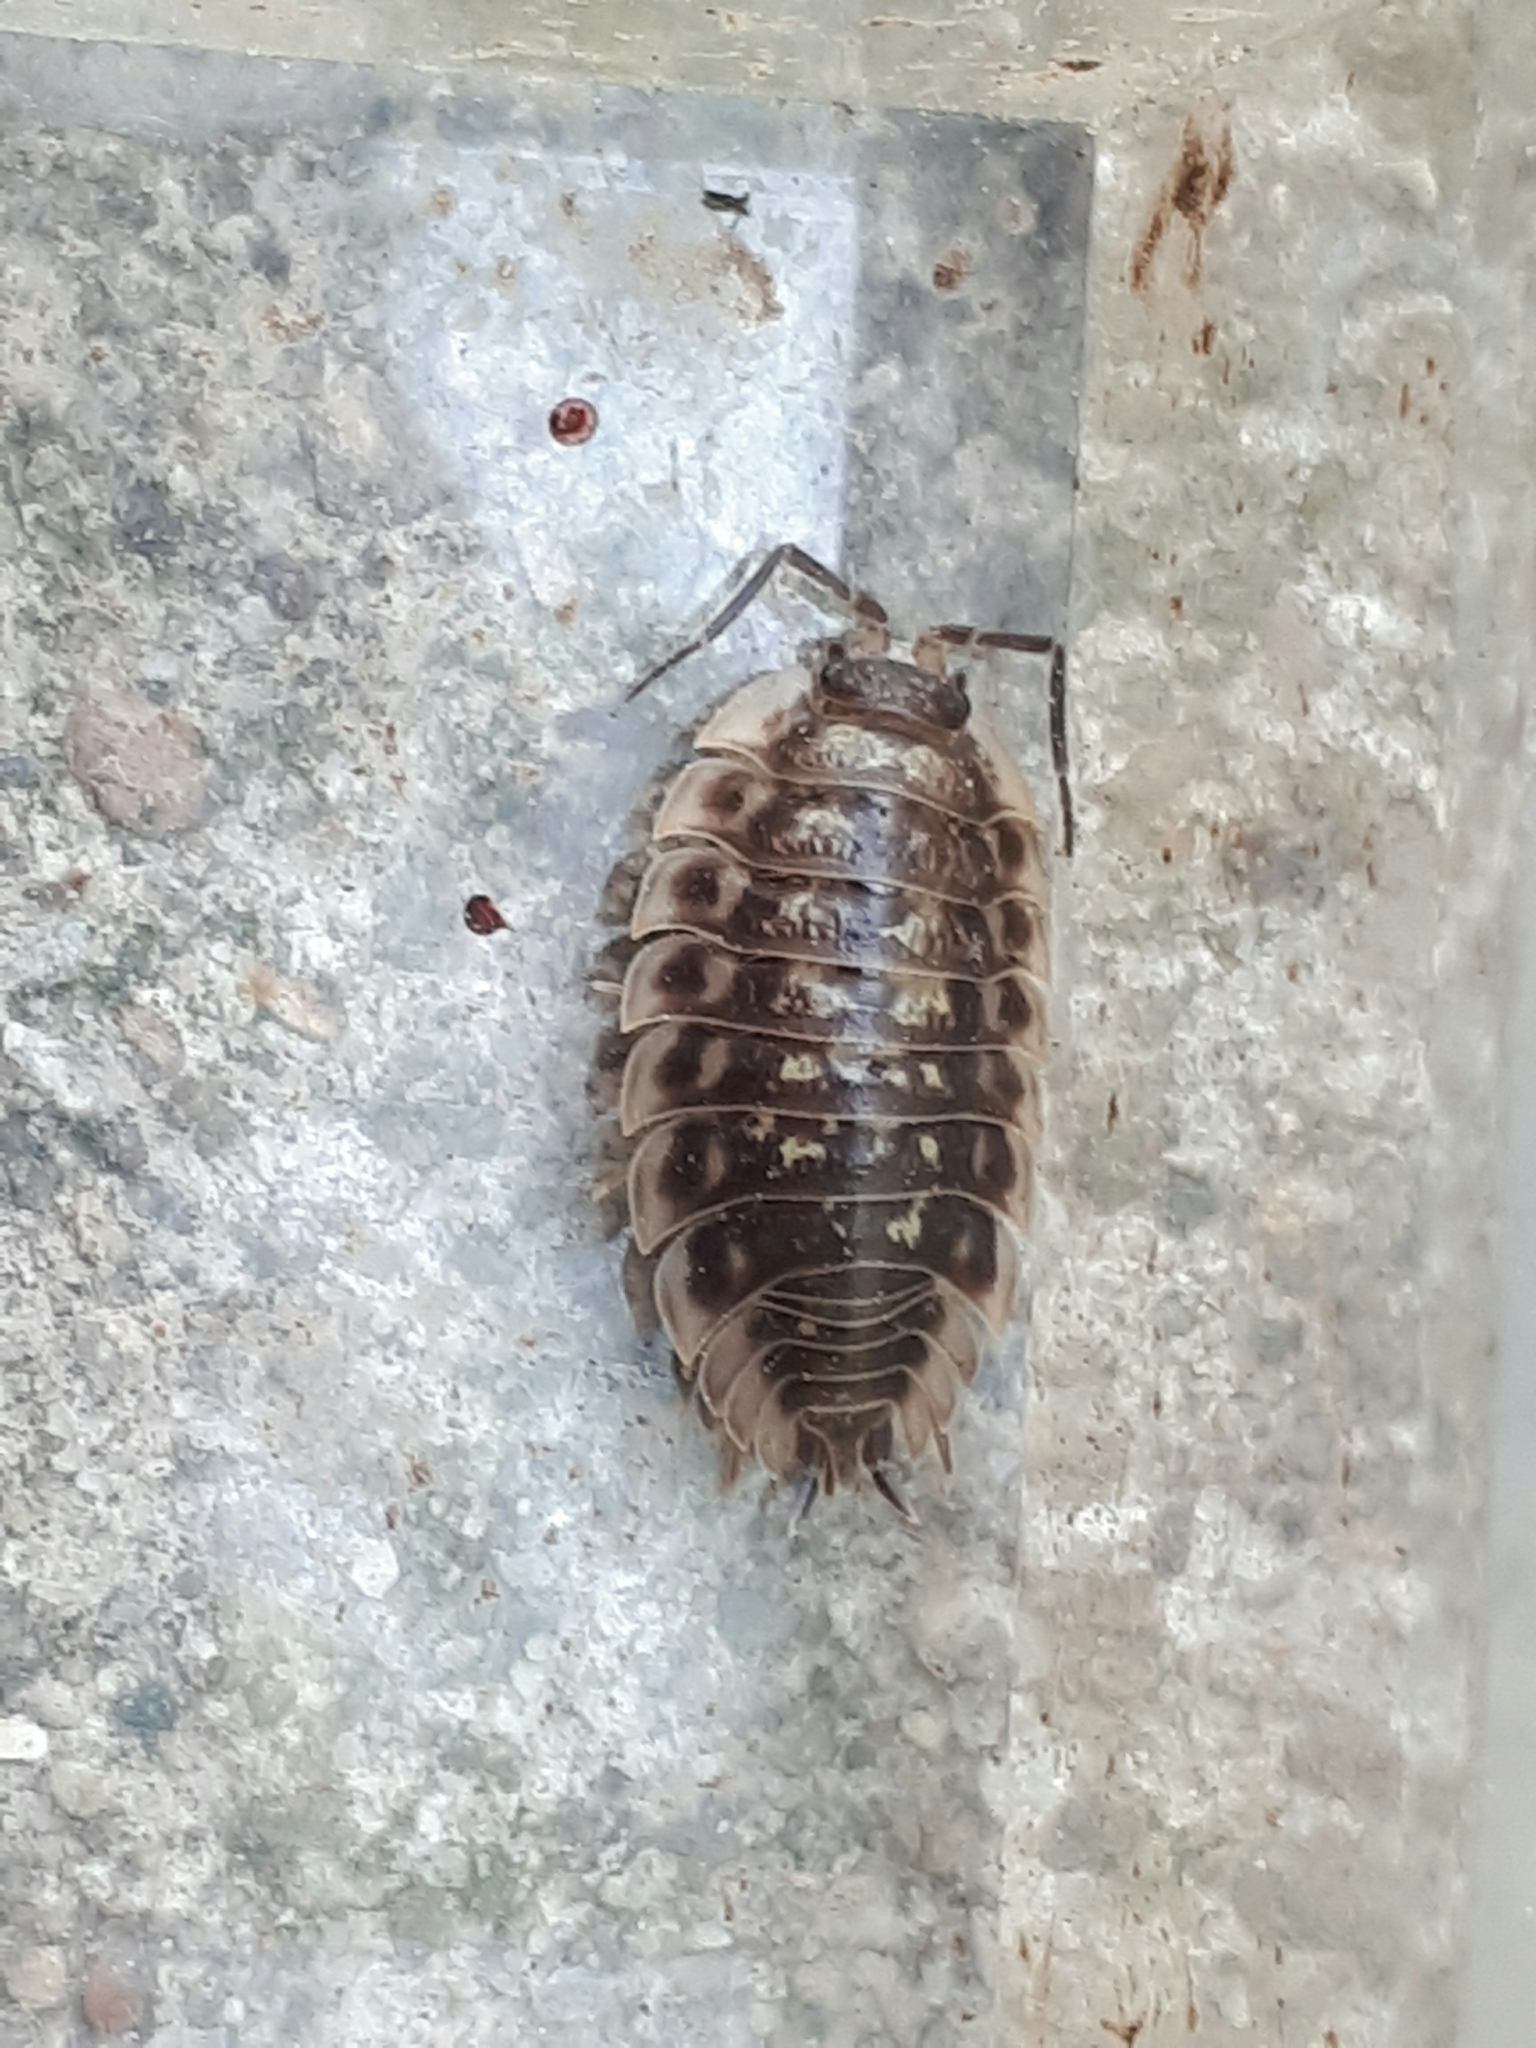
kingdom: Animalia
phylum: Arthropoda
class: Malacostraca
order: Isopoda
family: Oniscidae
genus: Oniscus
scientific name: Oniscus asellus
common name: Common shiny woodlouse
